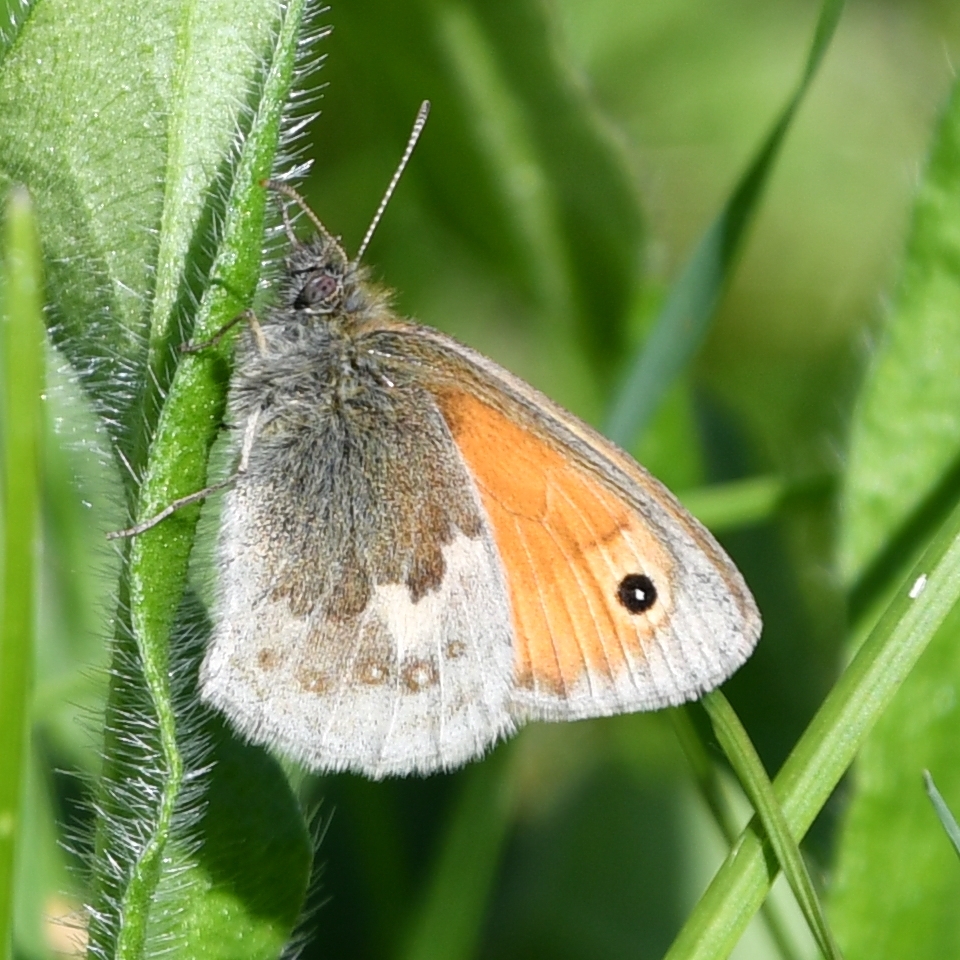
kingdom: Animalia
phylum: Arthropoda
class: Insecta
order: Lepidoptera
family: Nymphalidae
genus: Coenonympha
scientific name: Coenonympha pamphilus
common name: Small heath
